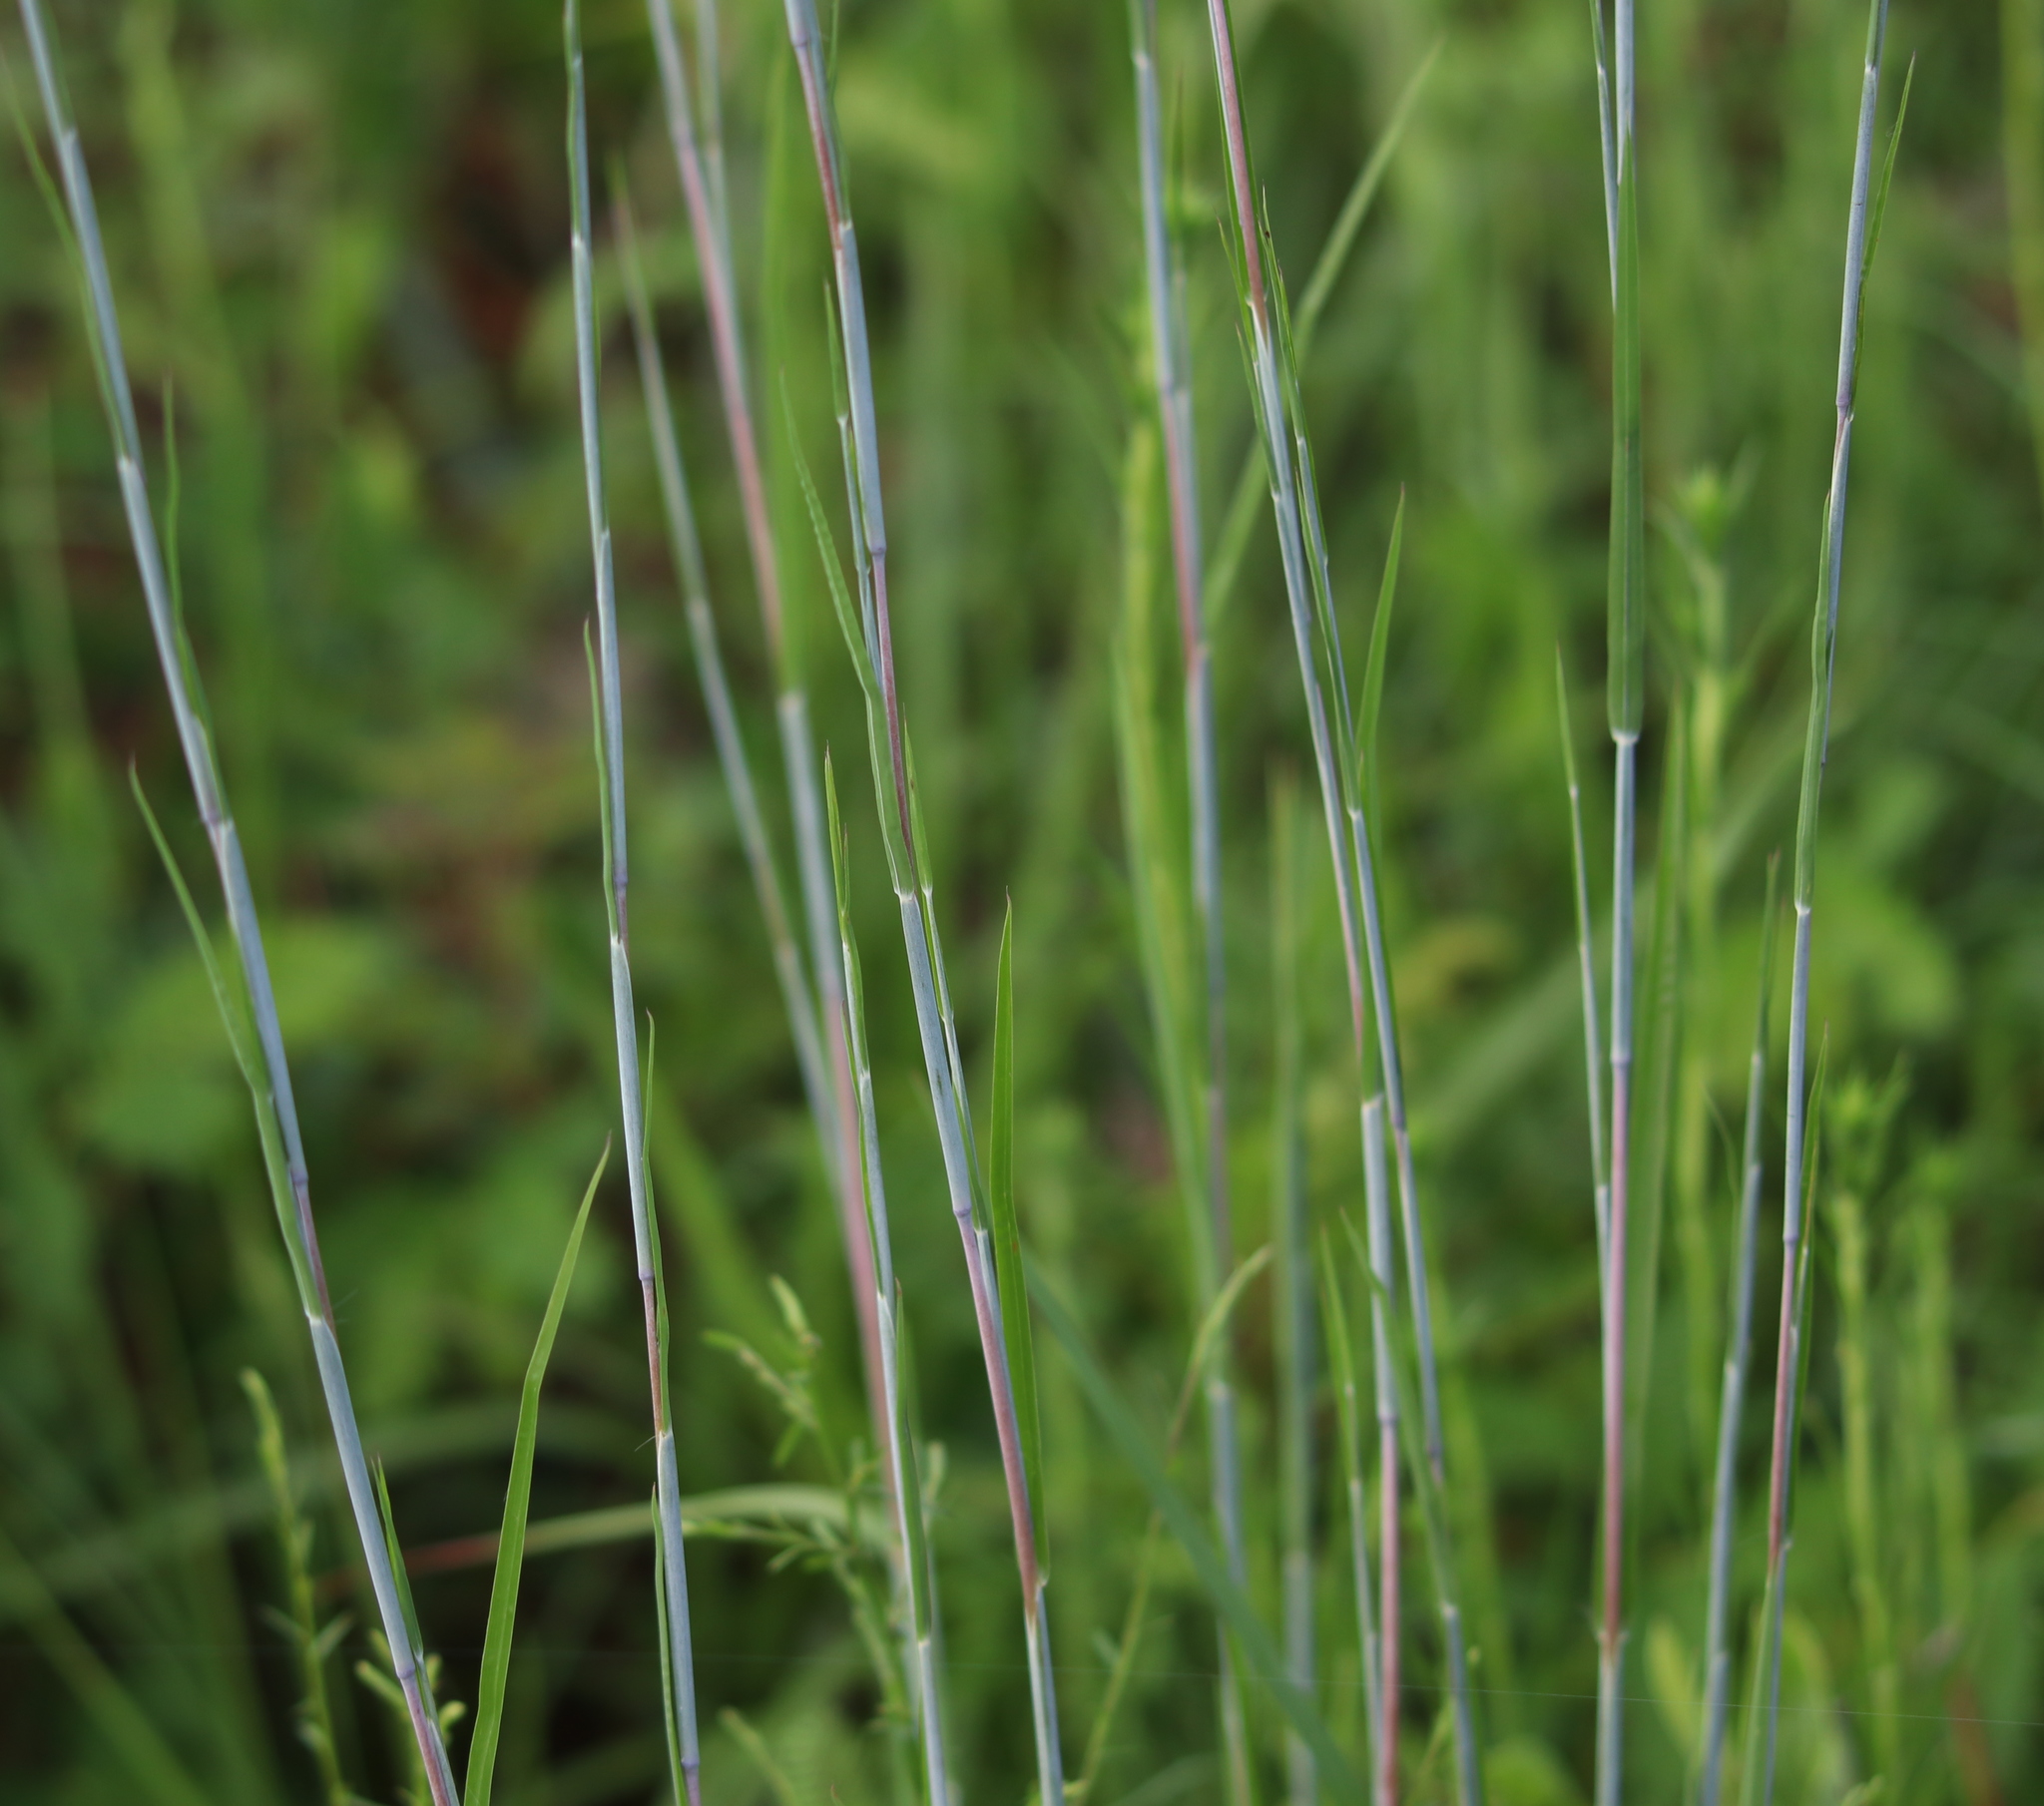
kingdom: Plantae
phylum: Tracheophyta
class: Liliopsida
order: Poales
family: Poaceae
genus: Schizachyrium
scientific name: Schizachyrium scoparium
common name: Little bluestem
